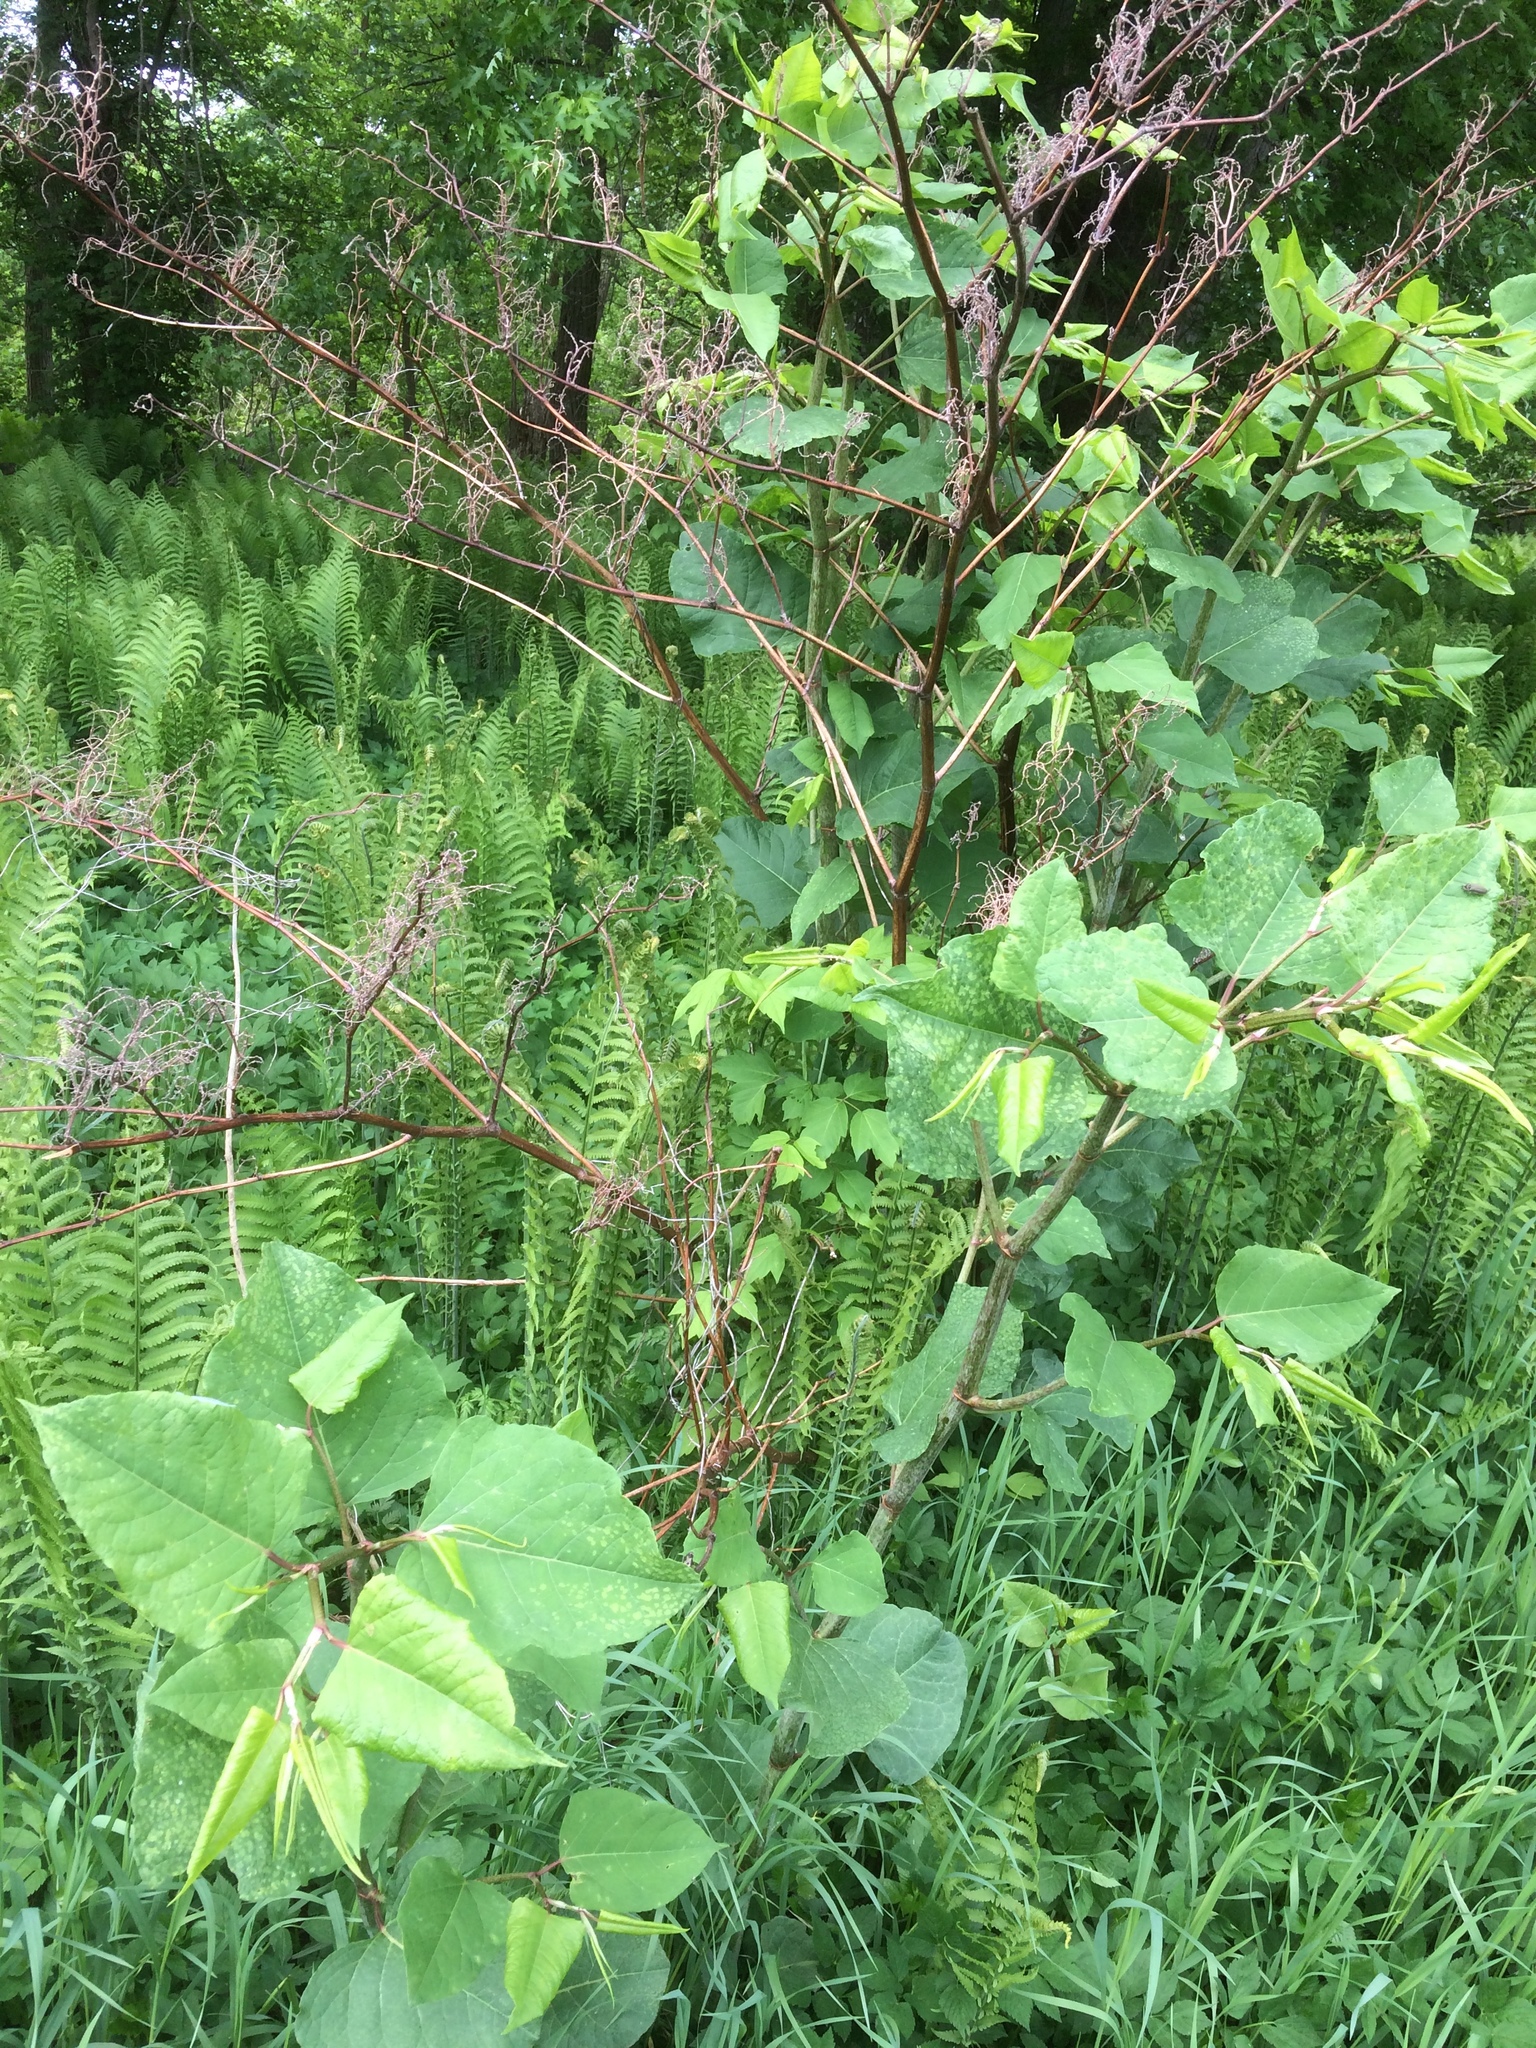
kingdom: Plantae
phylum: Tracheophyta
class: Magnoliopsida
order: Caryophyllales
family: Polygonaceae
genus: Reynoutria
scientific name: Reynoutria japonica
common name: Japanese knotweed
